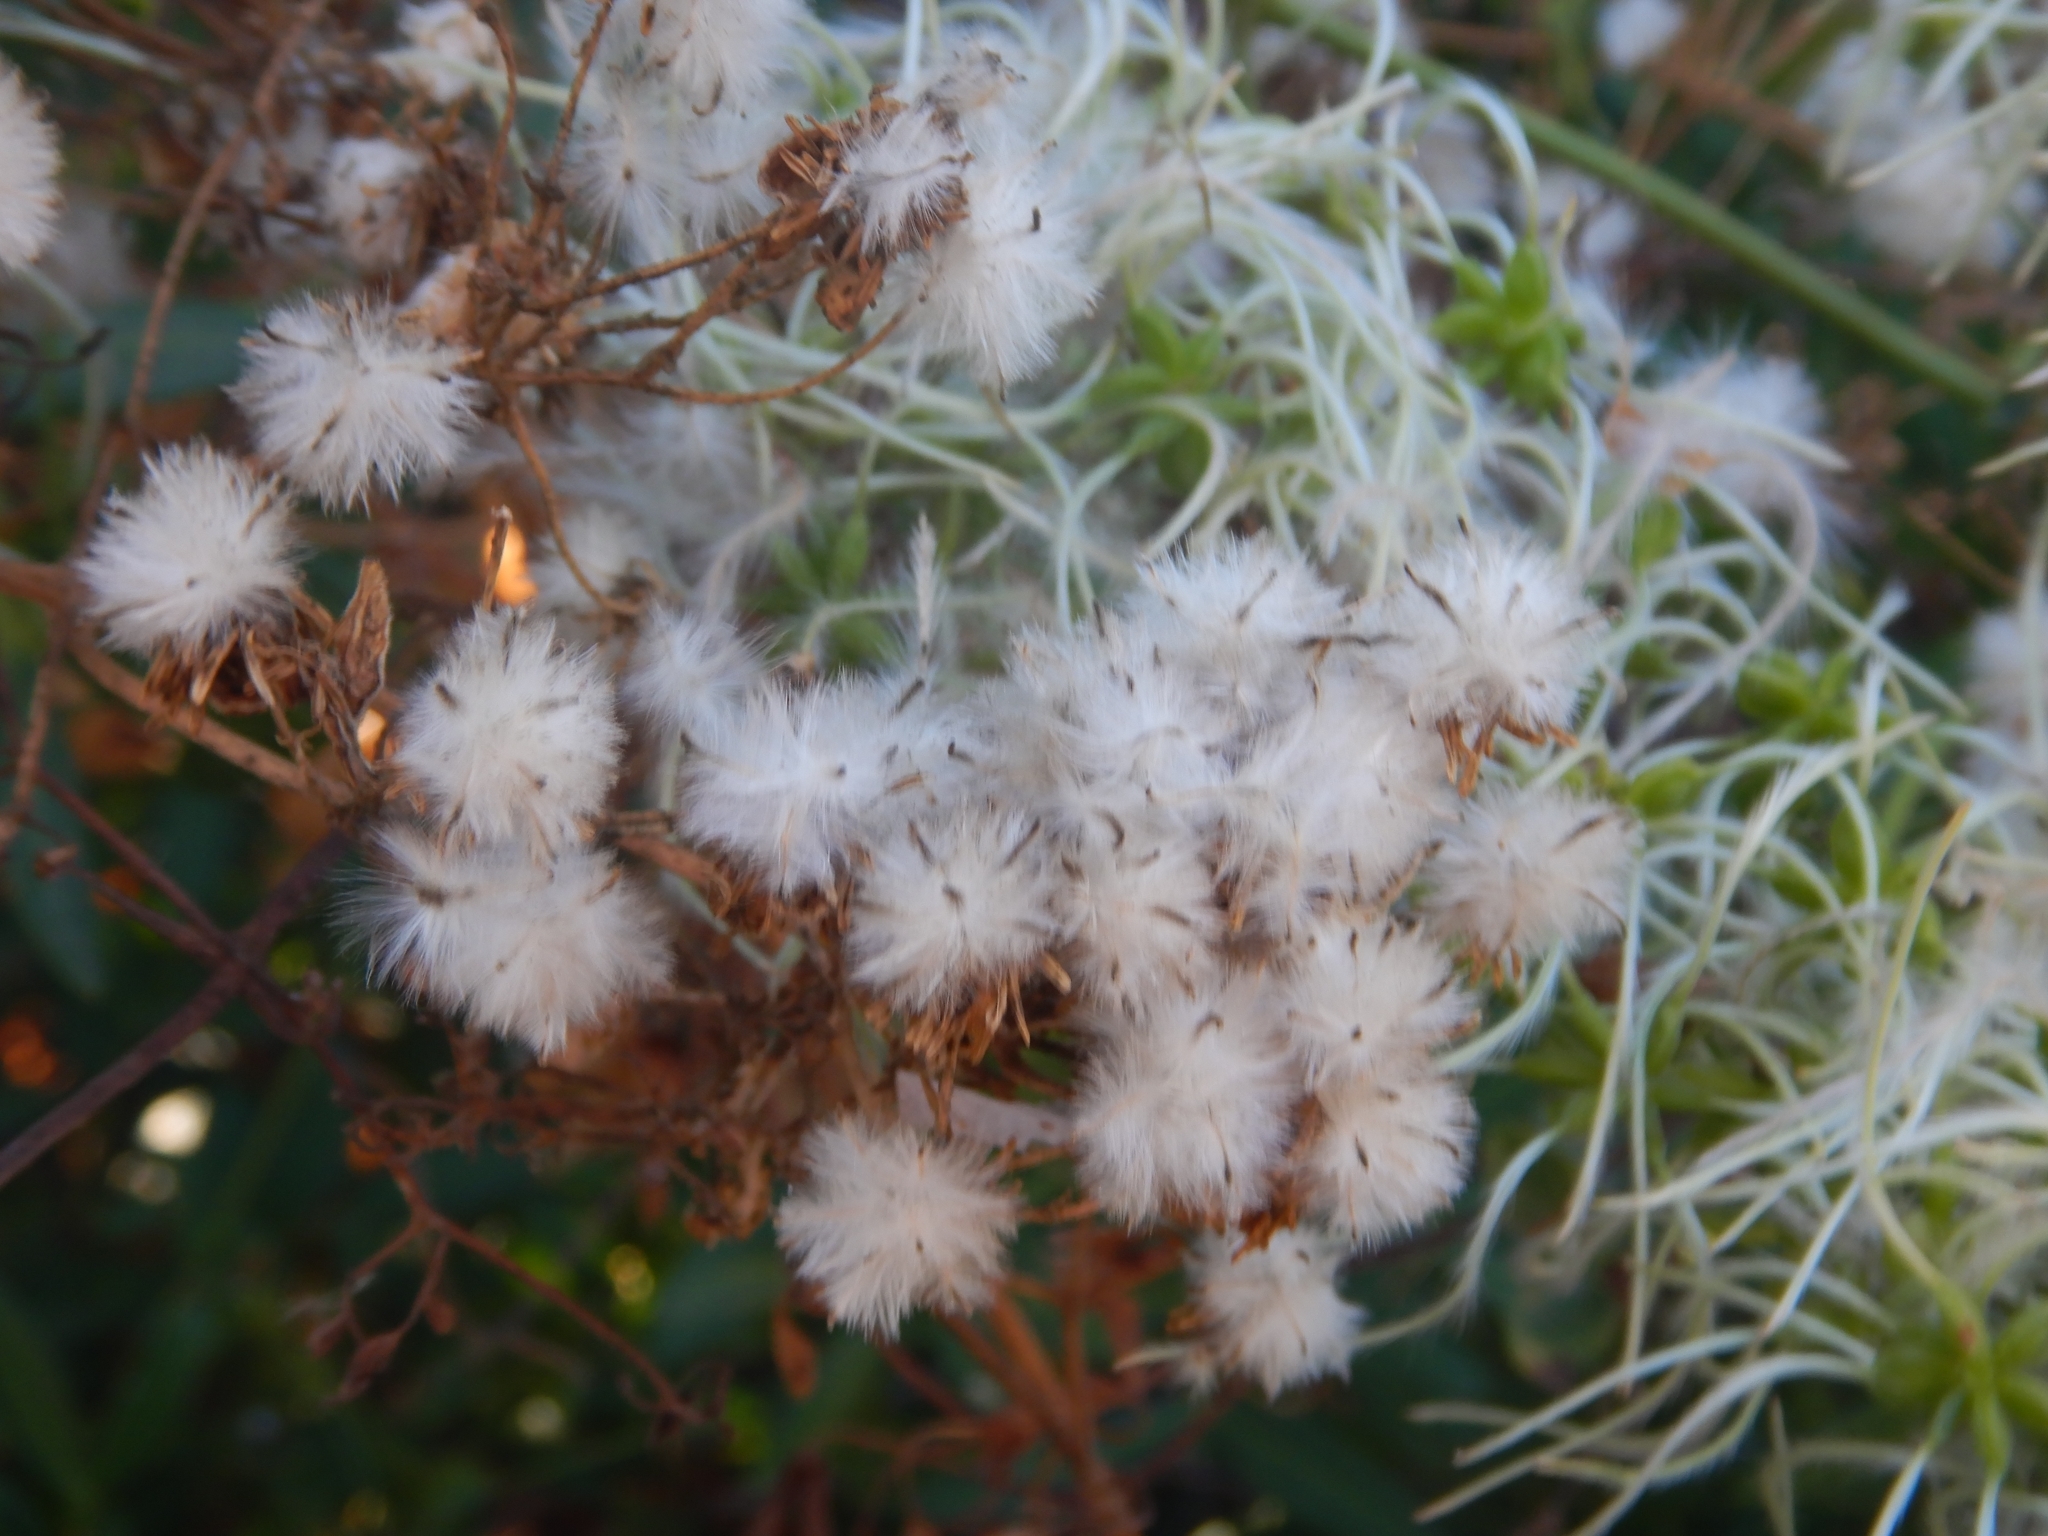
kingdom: Plantae
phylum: Tracheophyta
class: Magnoliopsida
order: Ranunculales
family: Ranunculaceae
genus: Clematis
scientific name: Clematis flammula
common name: Virgin's-bower
